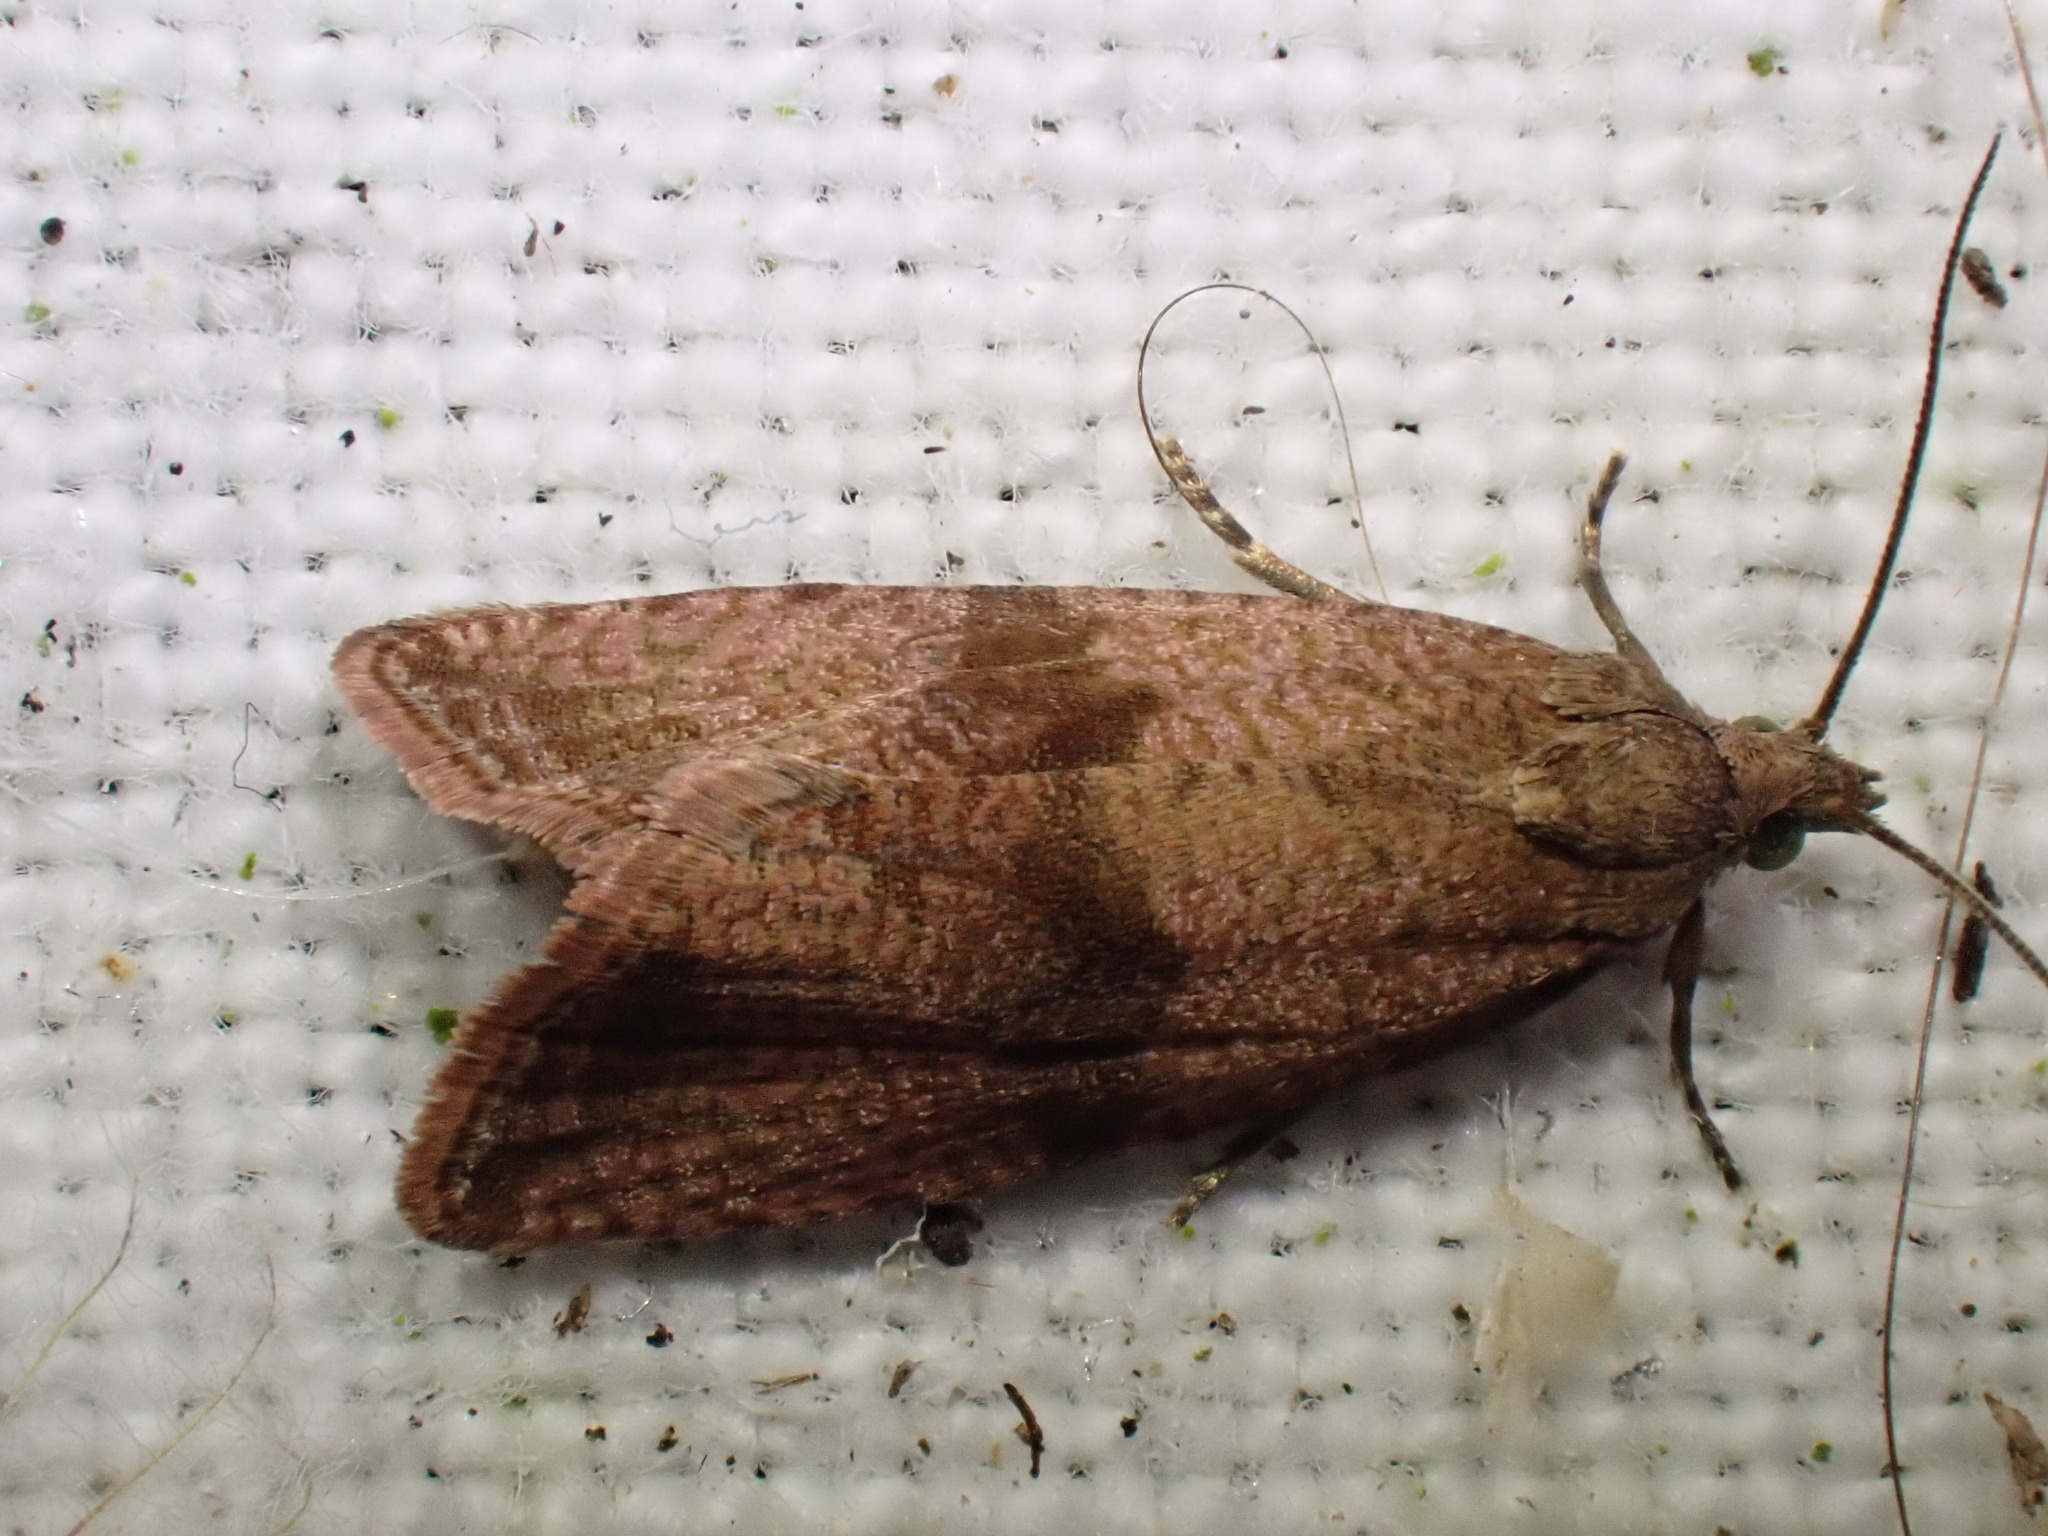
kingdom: Animalia
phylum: Arthropoda
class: Insecta
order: Lepidoptera
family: Tortricidae
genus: Celypha
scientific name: Celypha striana
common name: Barred marble
